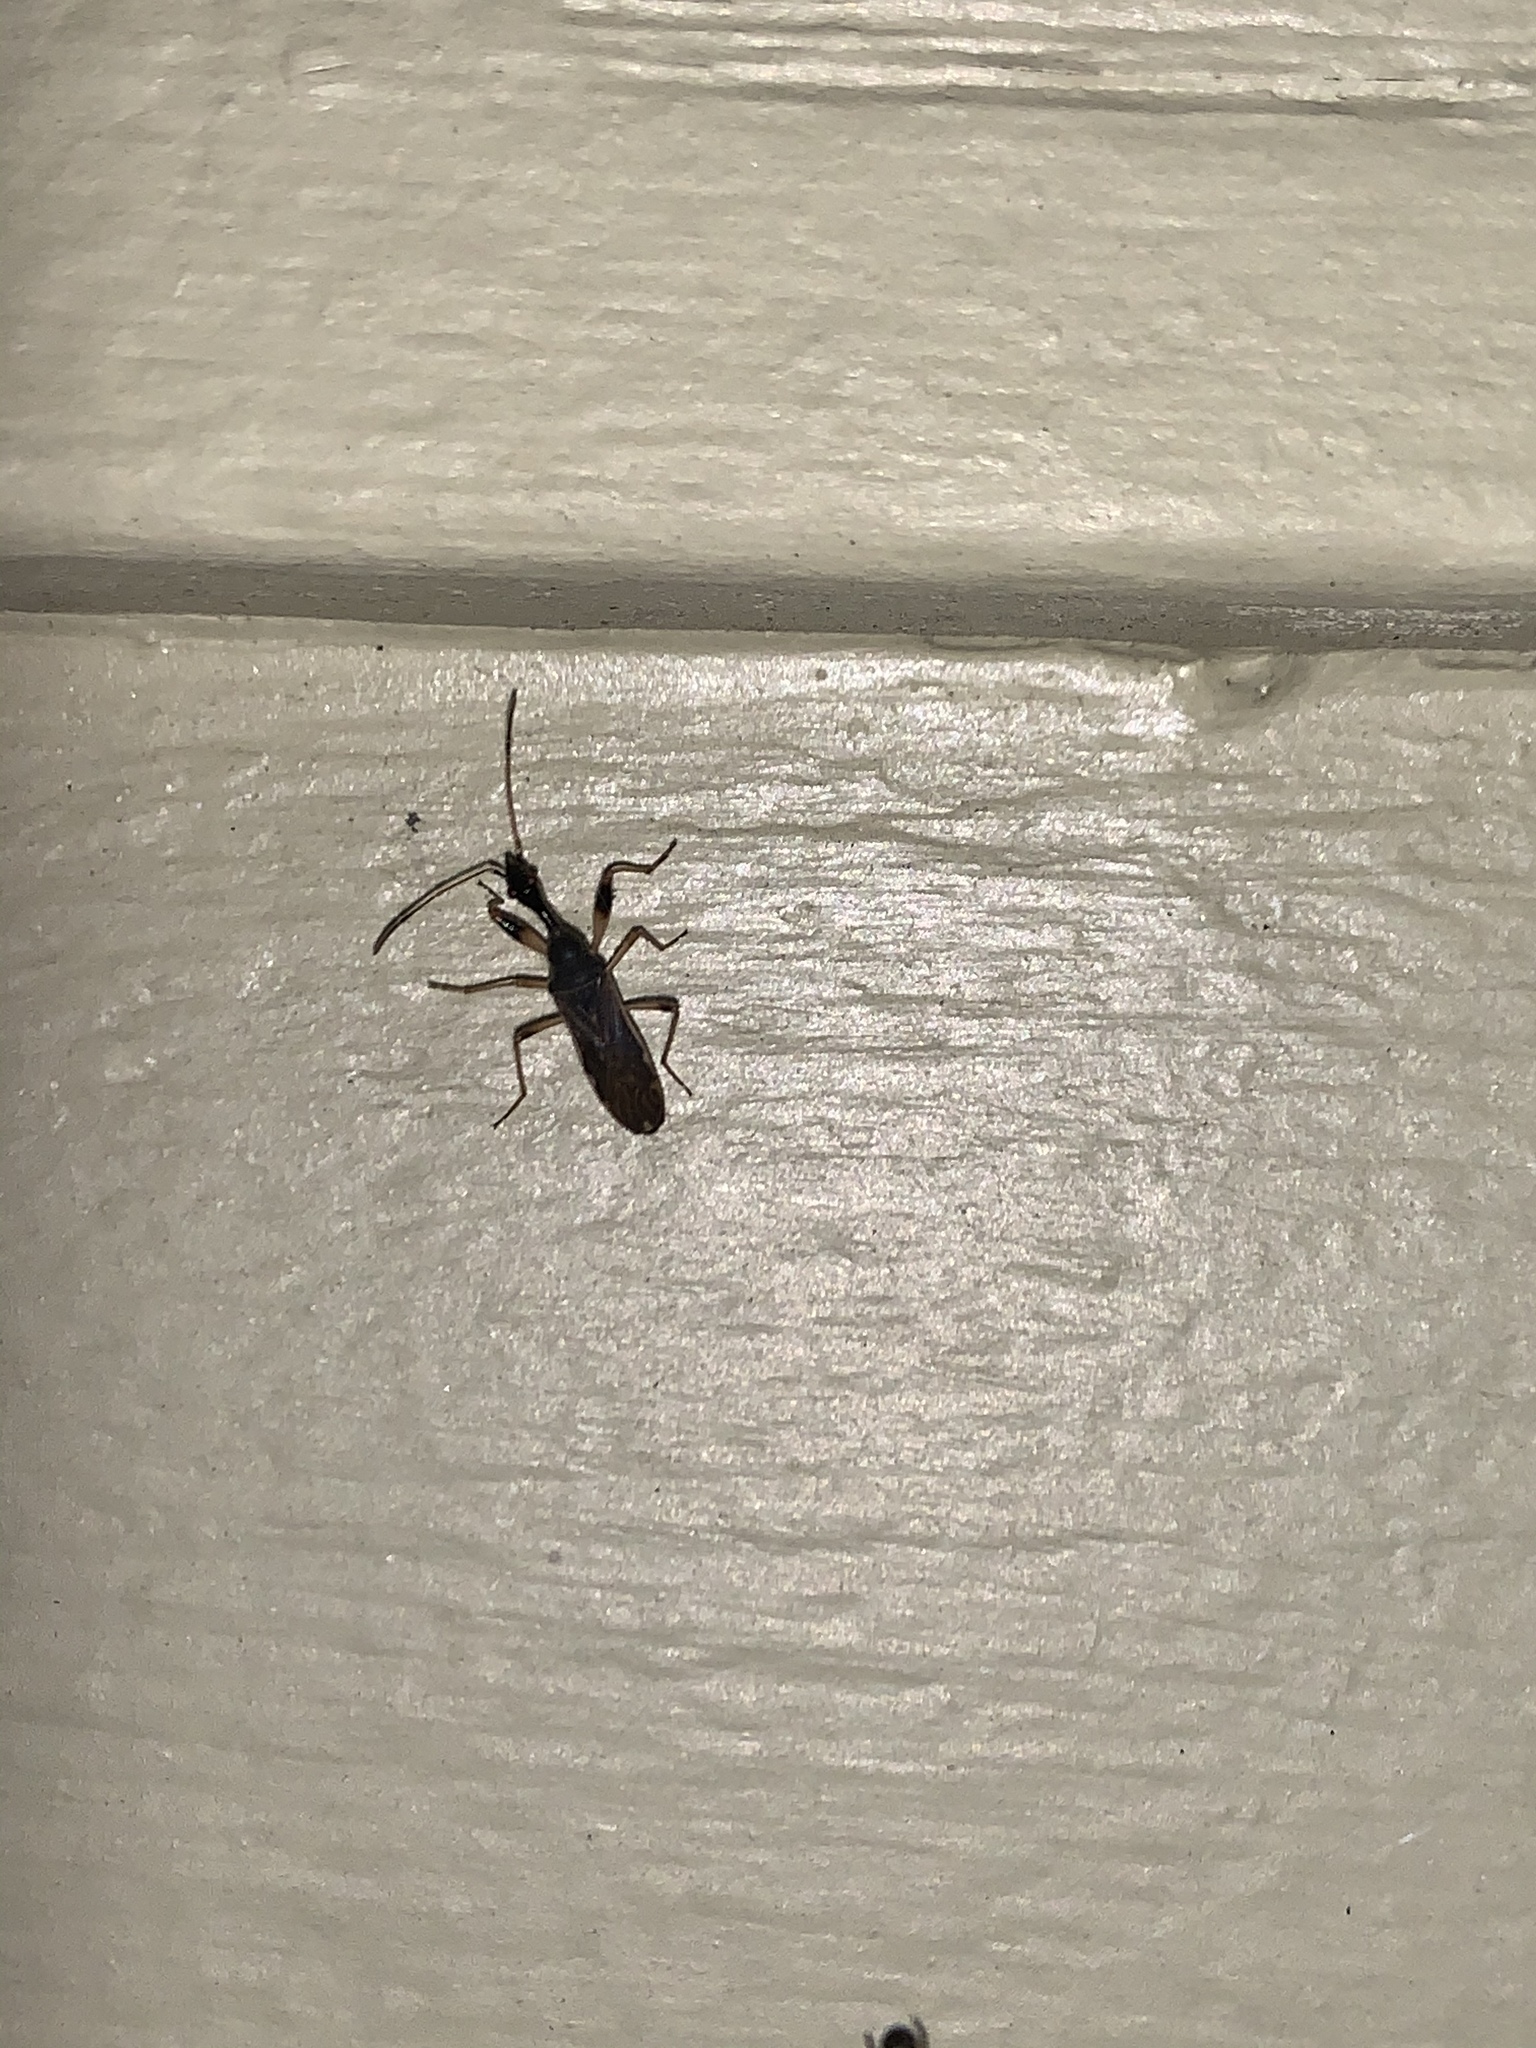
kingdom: Animalia
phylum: Arthropoda
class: Insecta
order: Hemiptera
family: Rhyparochromidae
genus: Myodocha
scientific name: Myodocha serripes
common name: Long-necked seed bug
